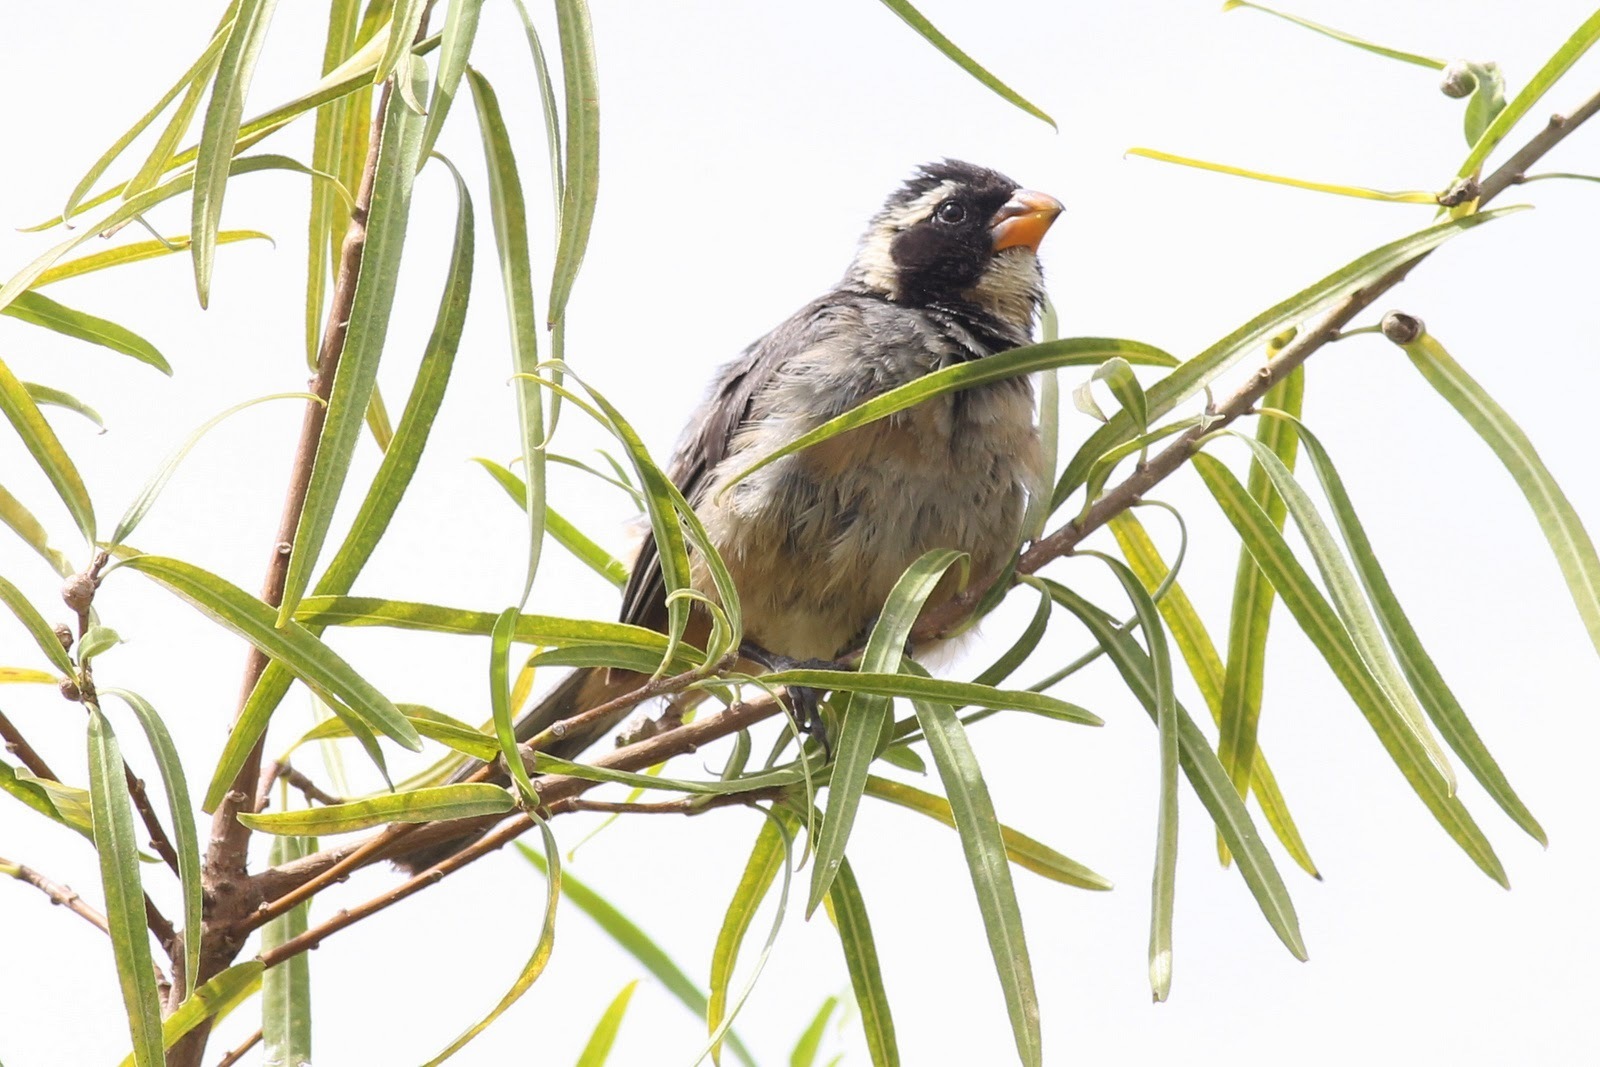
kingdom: Animalia
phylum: Chordata
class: Aves
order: Passeriformes
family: Thraupidae
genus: Saltator
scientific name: Saltator aurantiirostris
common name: Golden-billed saltator
